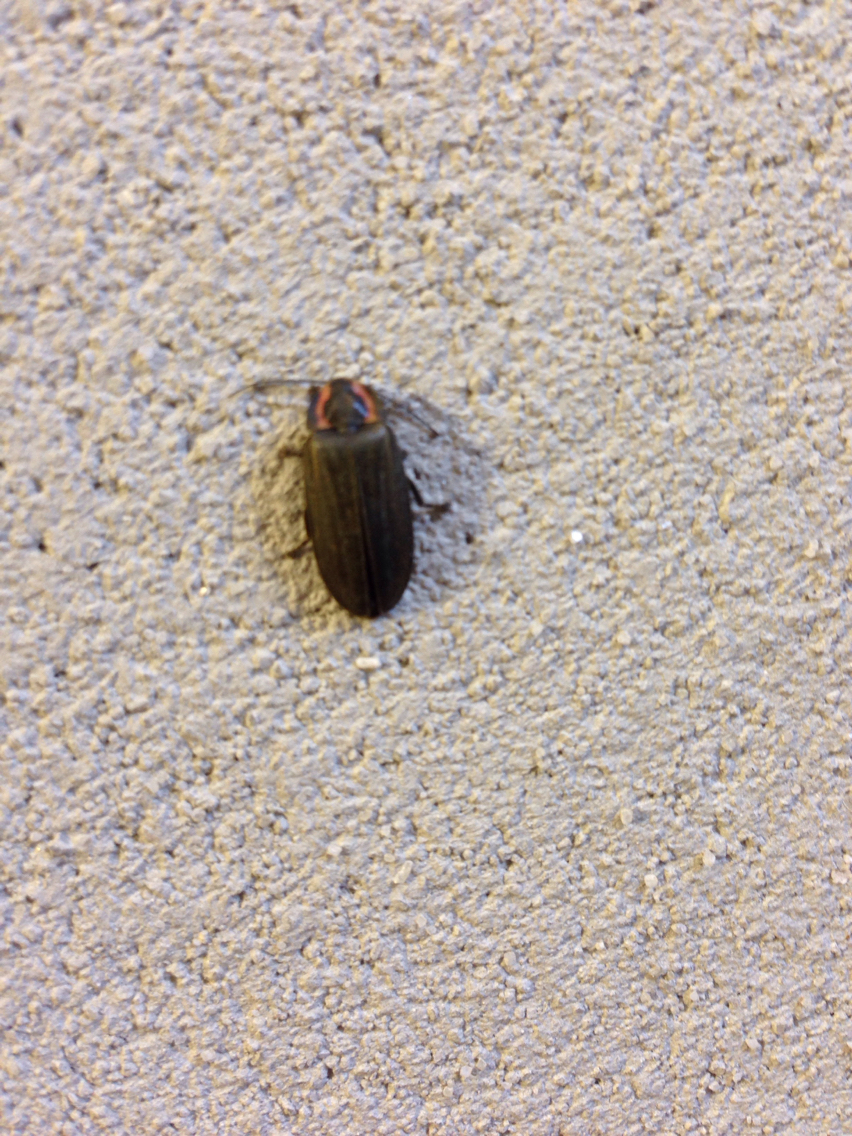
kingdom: Animalia
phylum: Arthropoda
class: Insecta
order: Coleoptera
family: Lampyridae
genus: Photinus
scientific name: Photinus corrusca
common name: Winter firefly
